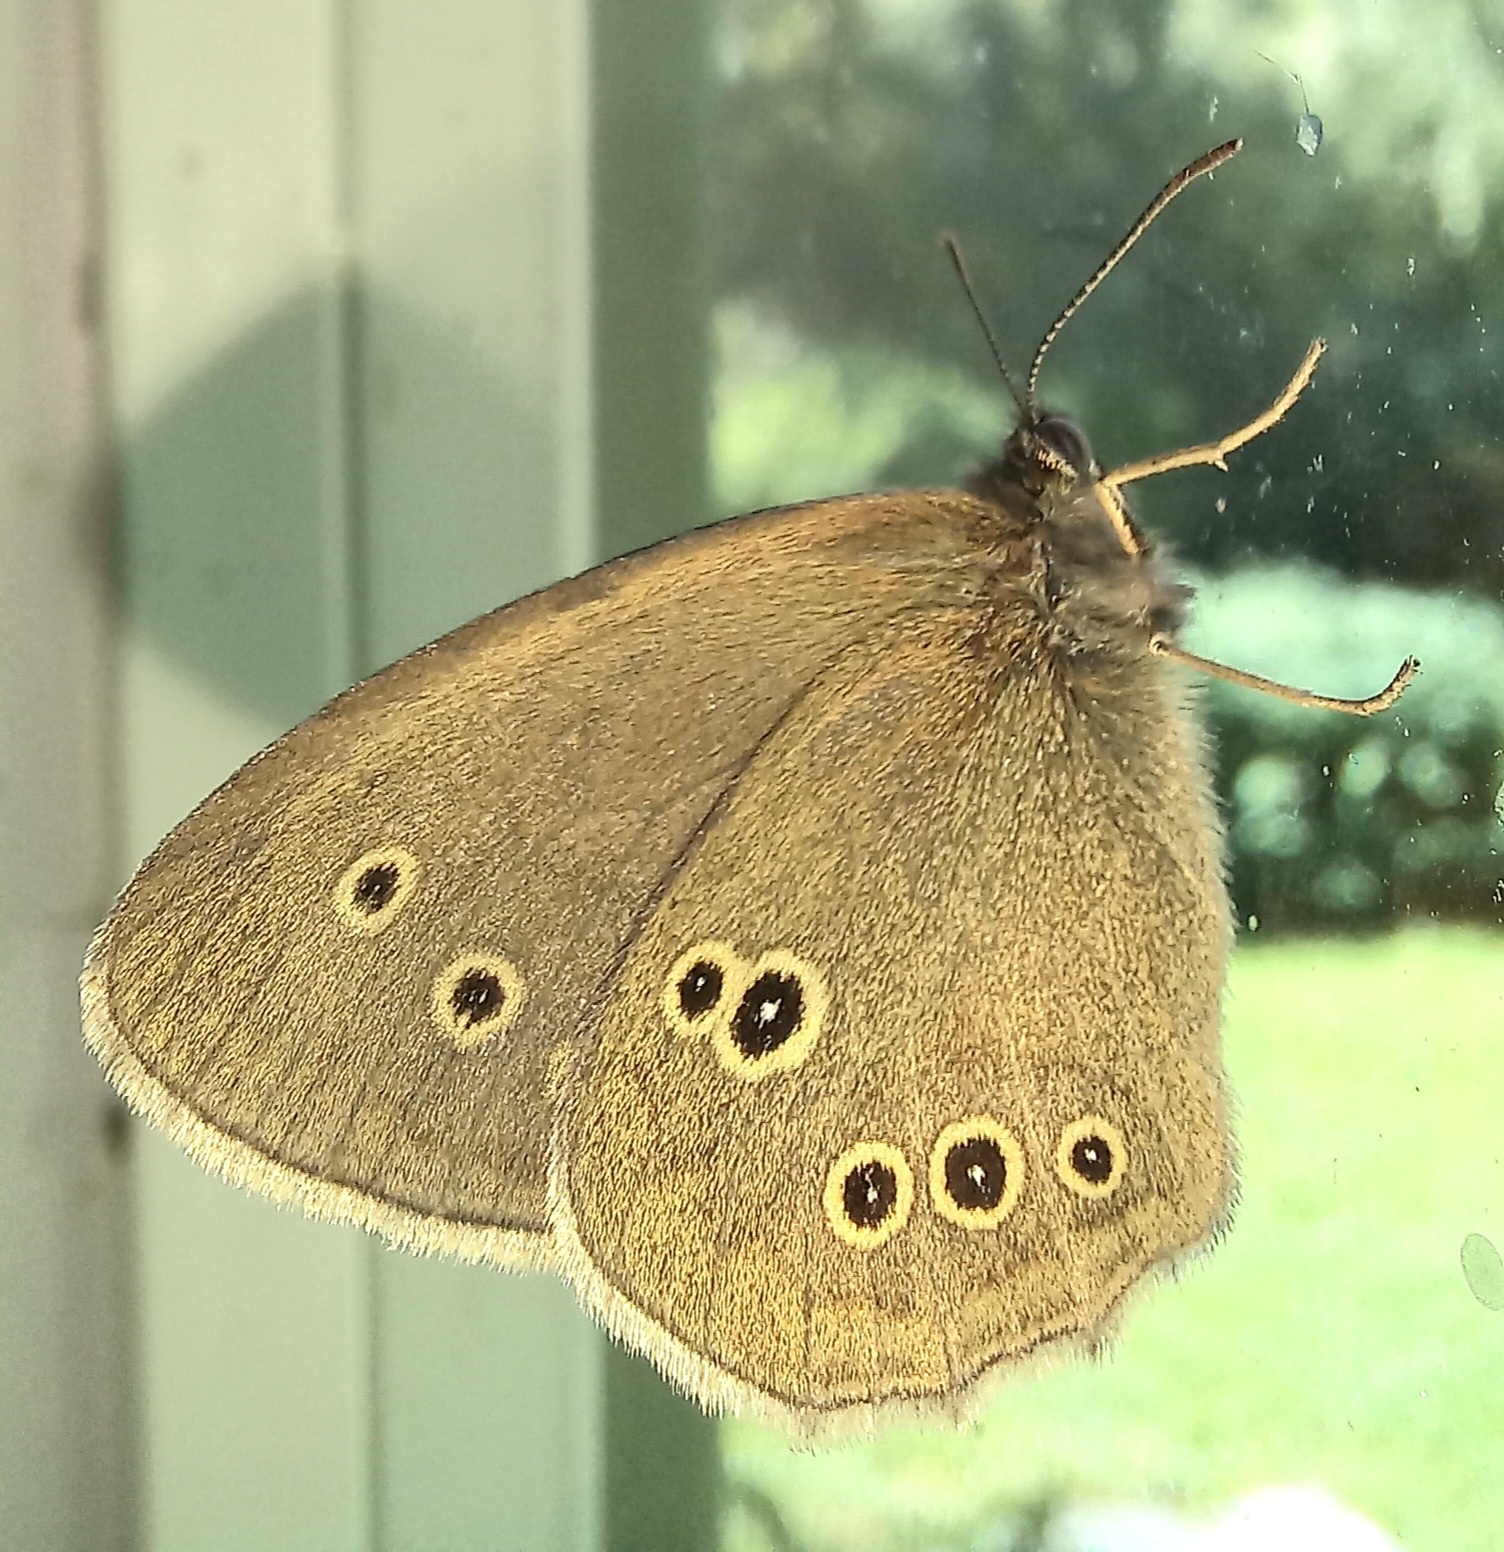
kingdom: Animalia
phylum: Arthropoda
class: Insecta
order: Lepidoptera
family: Nymphalidae
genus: Aphantopus
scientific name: Aphantopus hyperantus
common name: Ringlet
